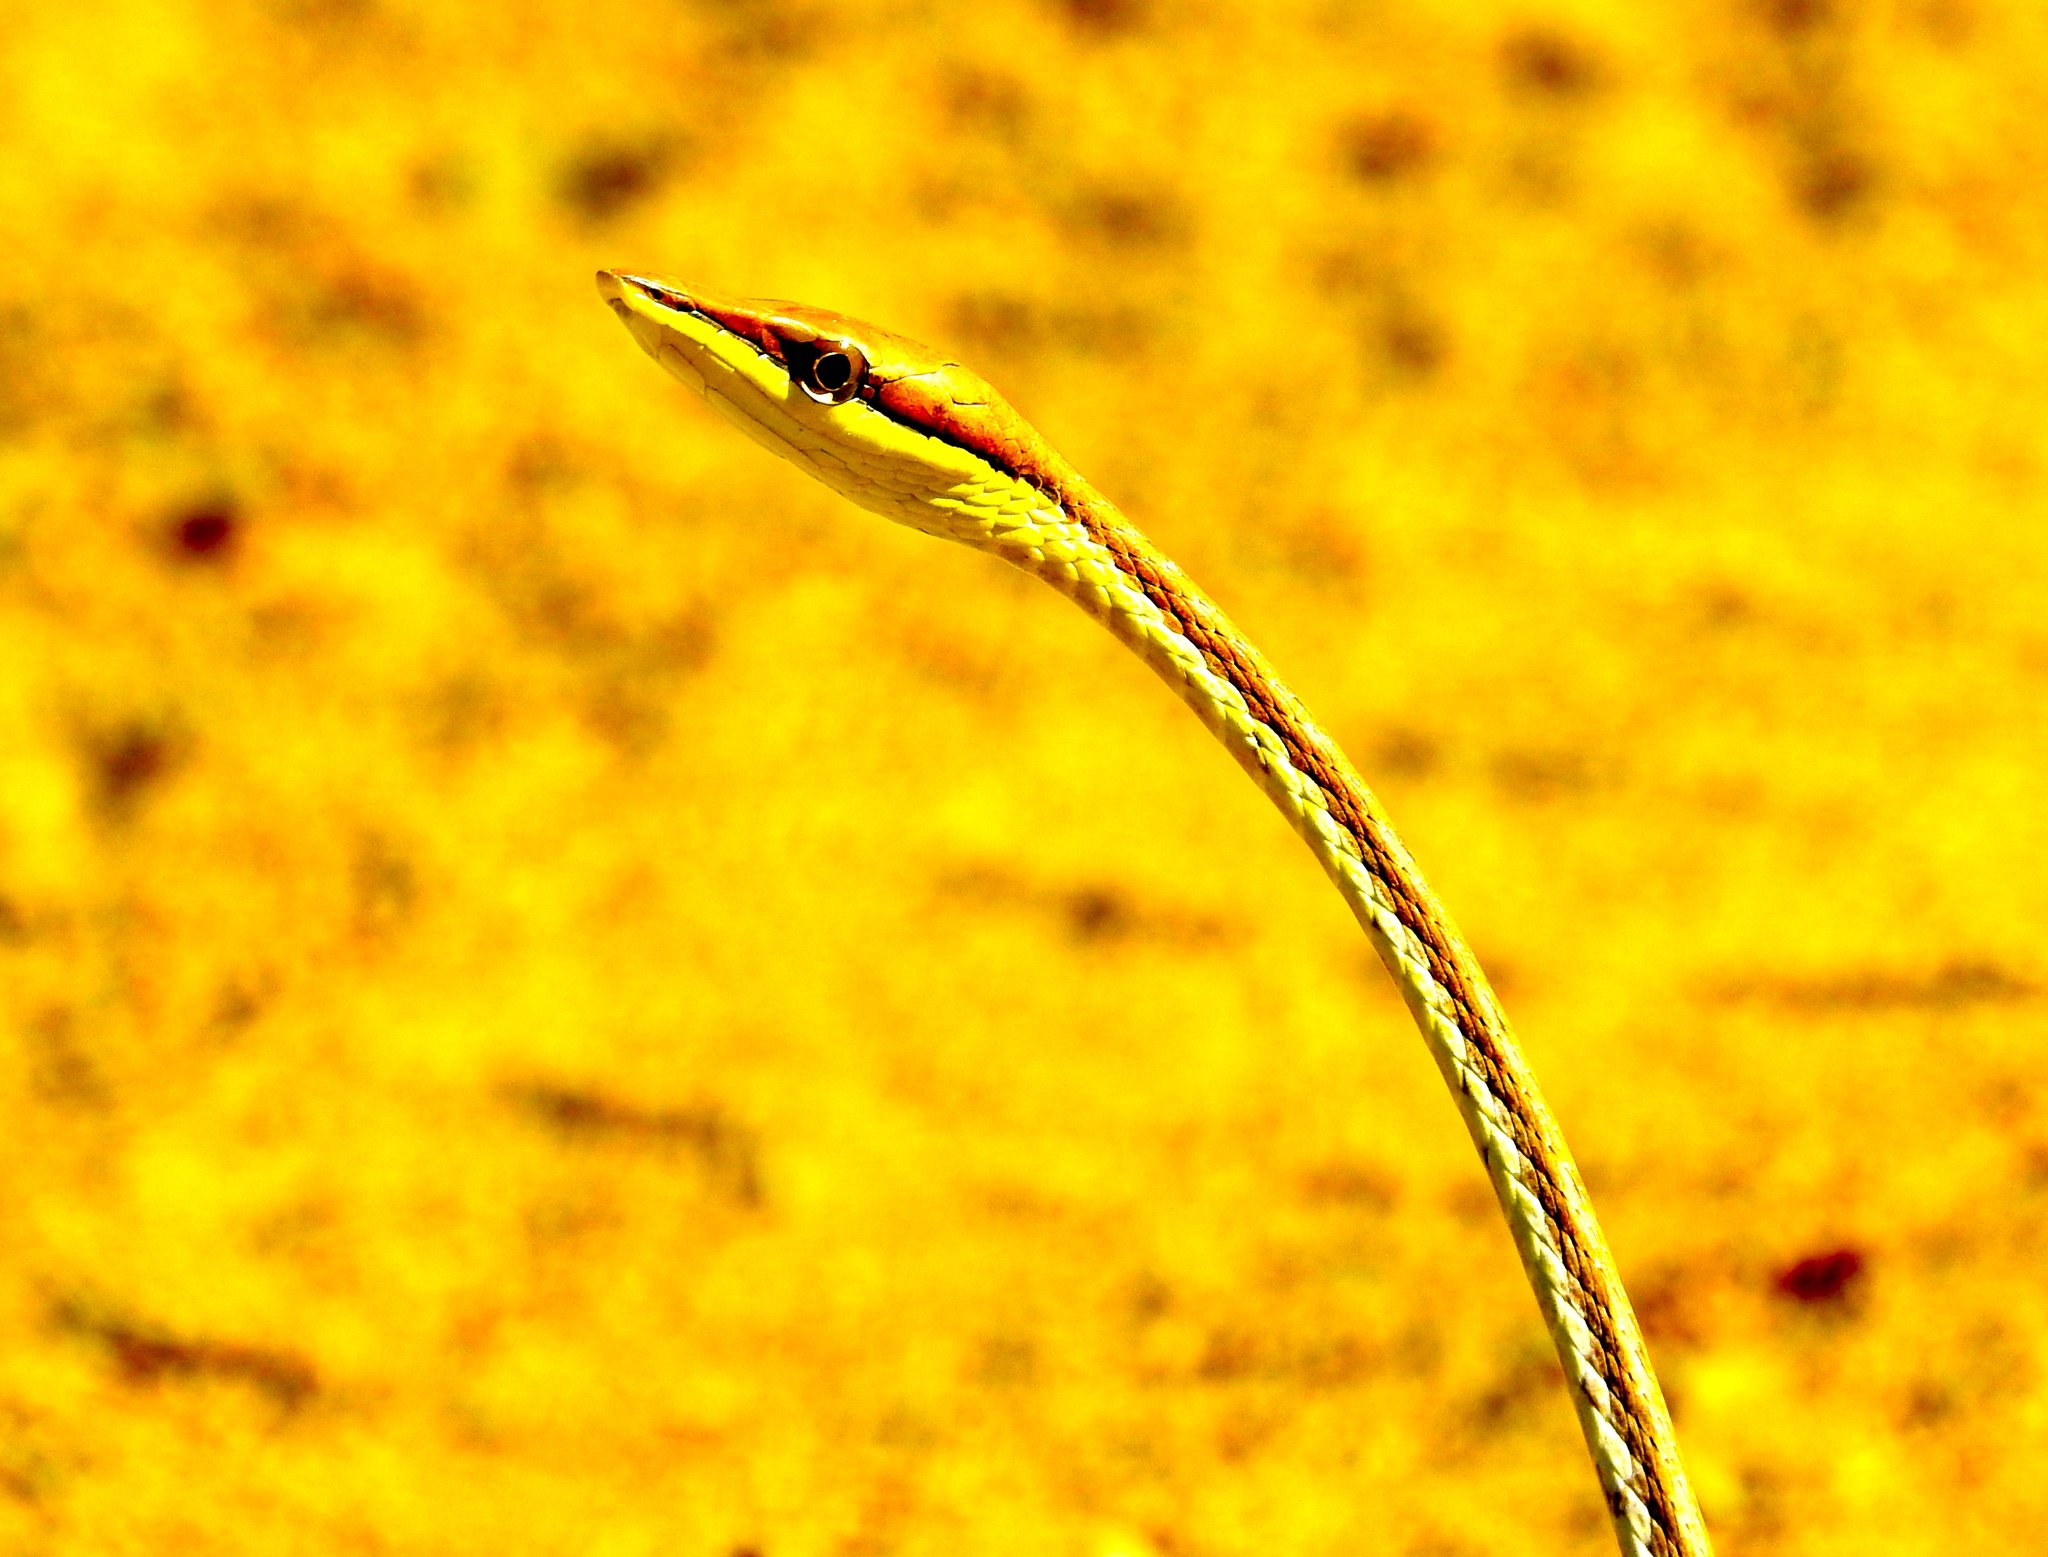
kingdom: Animalia
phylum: Chordata
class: Squamata
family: Colubridae
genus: Oxybelis
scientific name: Oxybelis microphthalmus
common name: Thrornscrub vine snake
